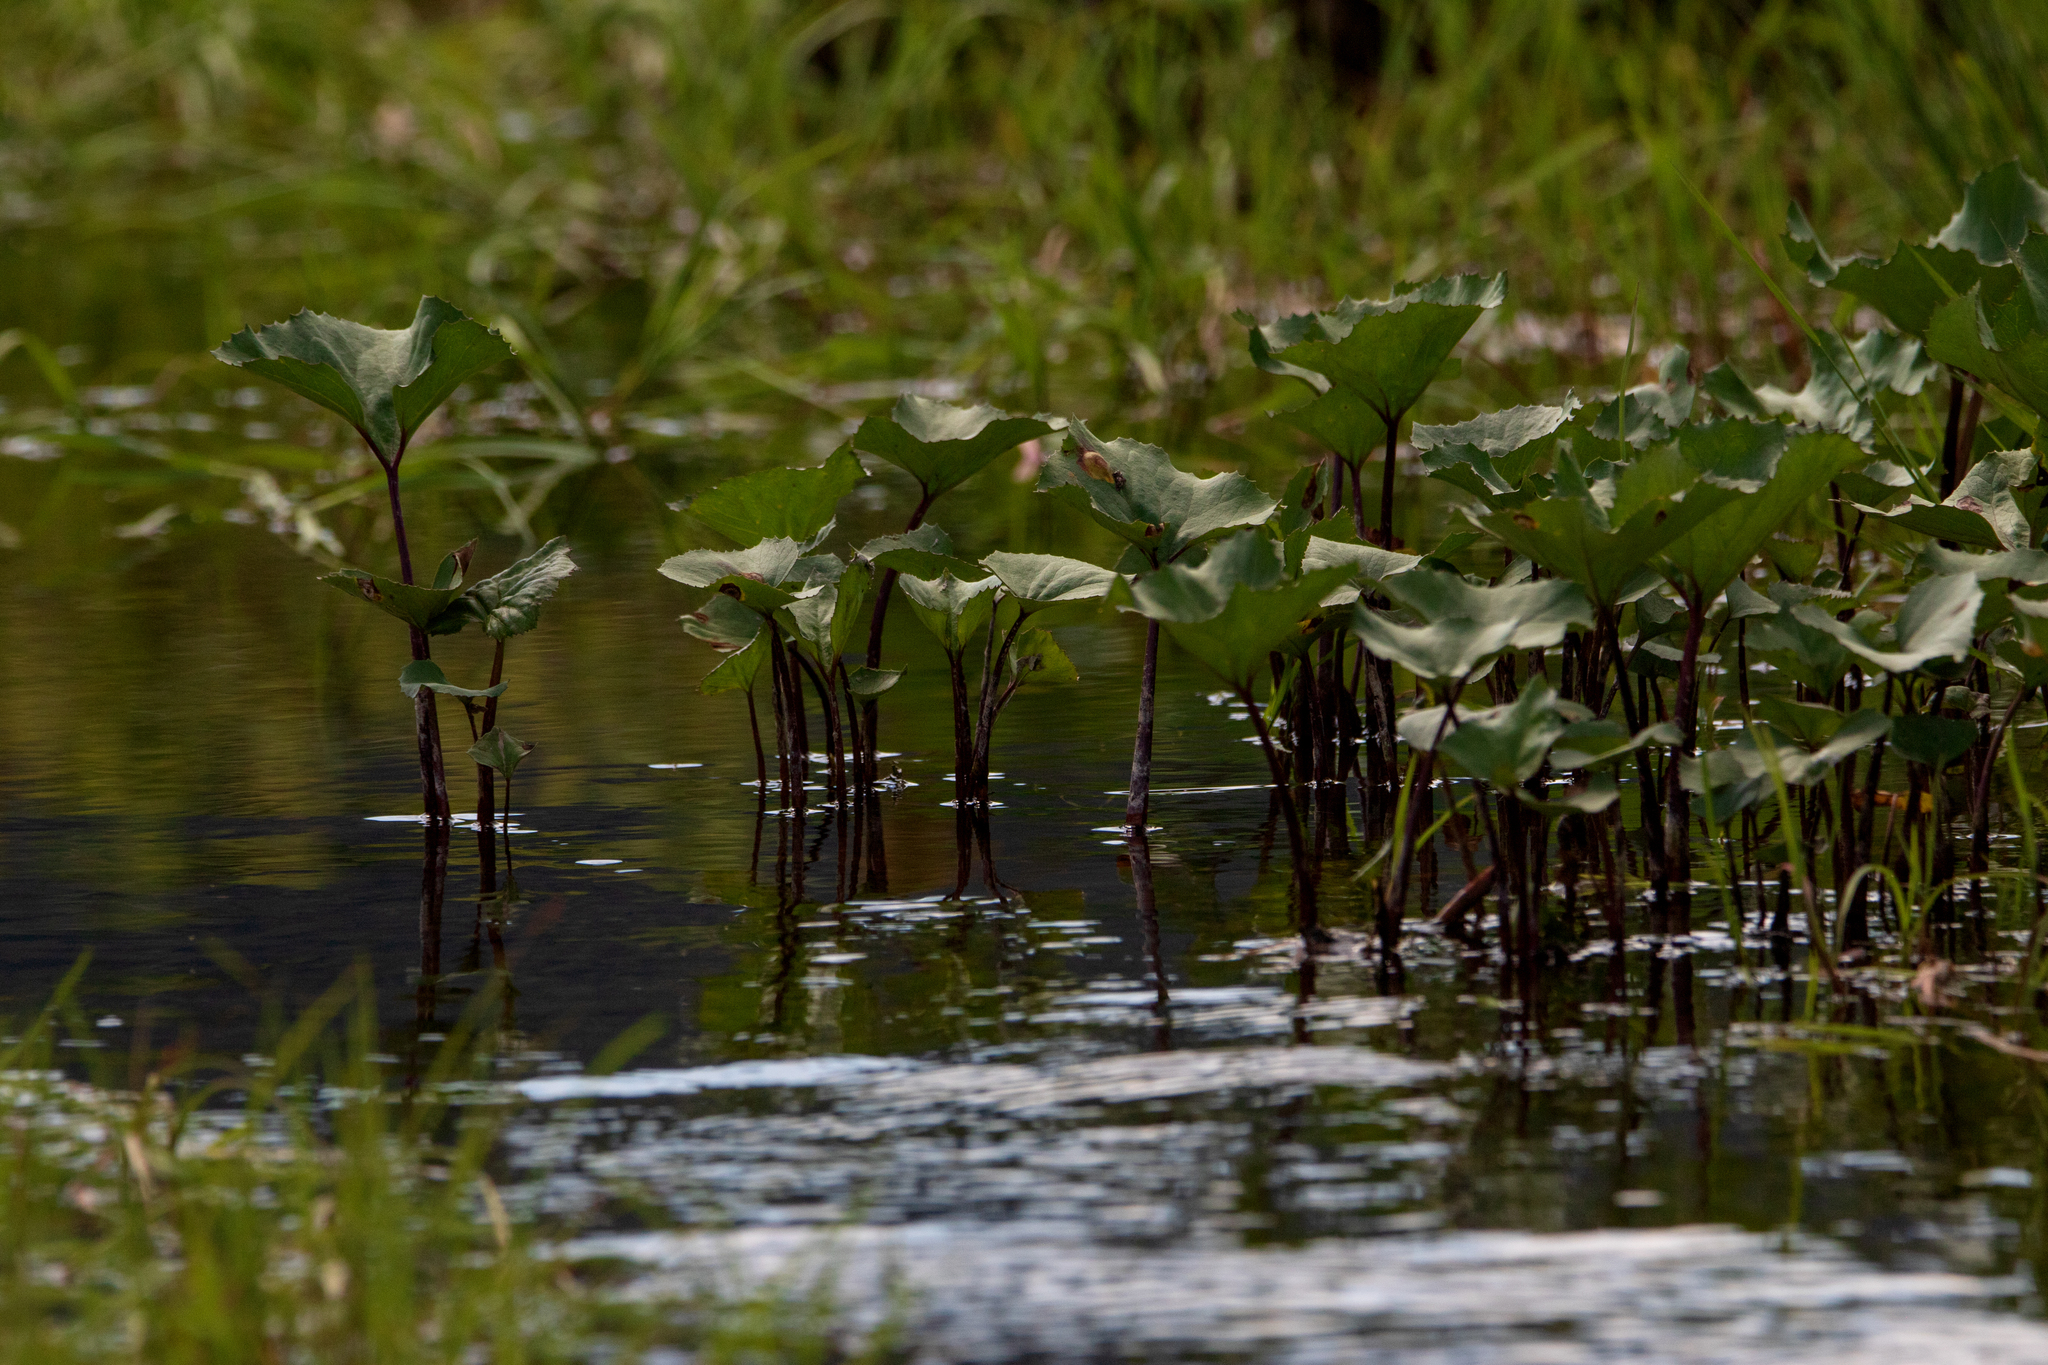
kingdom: Plantae
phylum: Tracheophyta
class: Magnoliopsida
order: Asterales
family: Asteraceae
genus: Petasites
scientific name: Petasites radiatus
